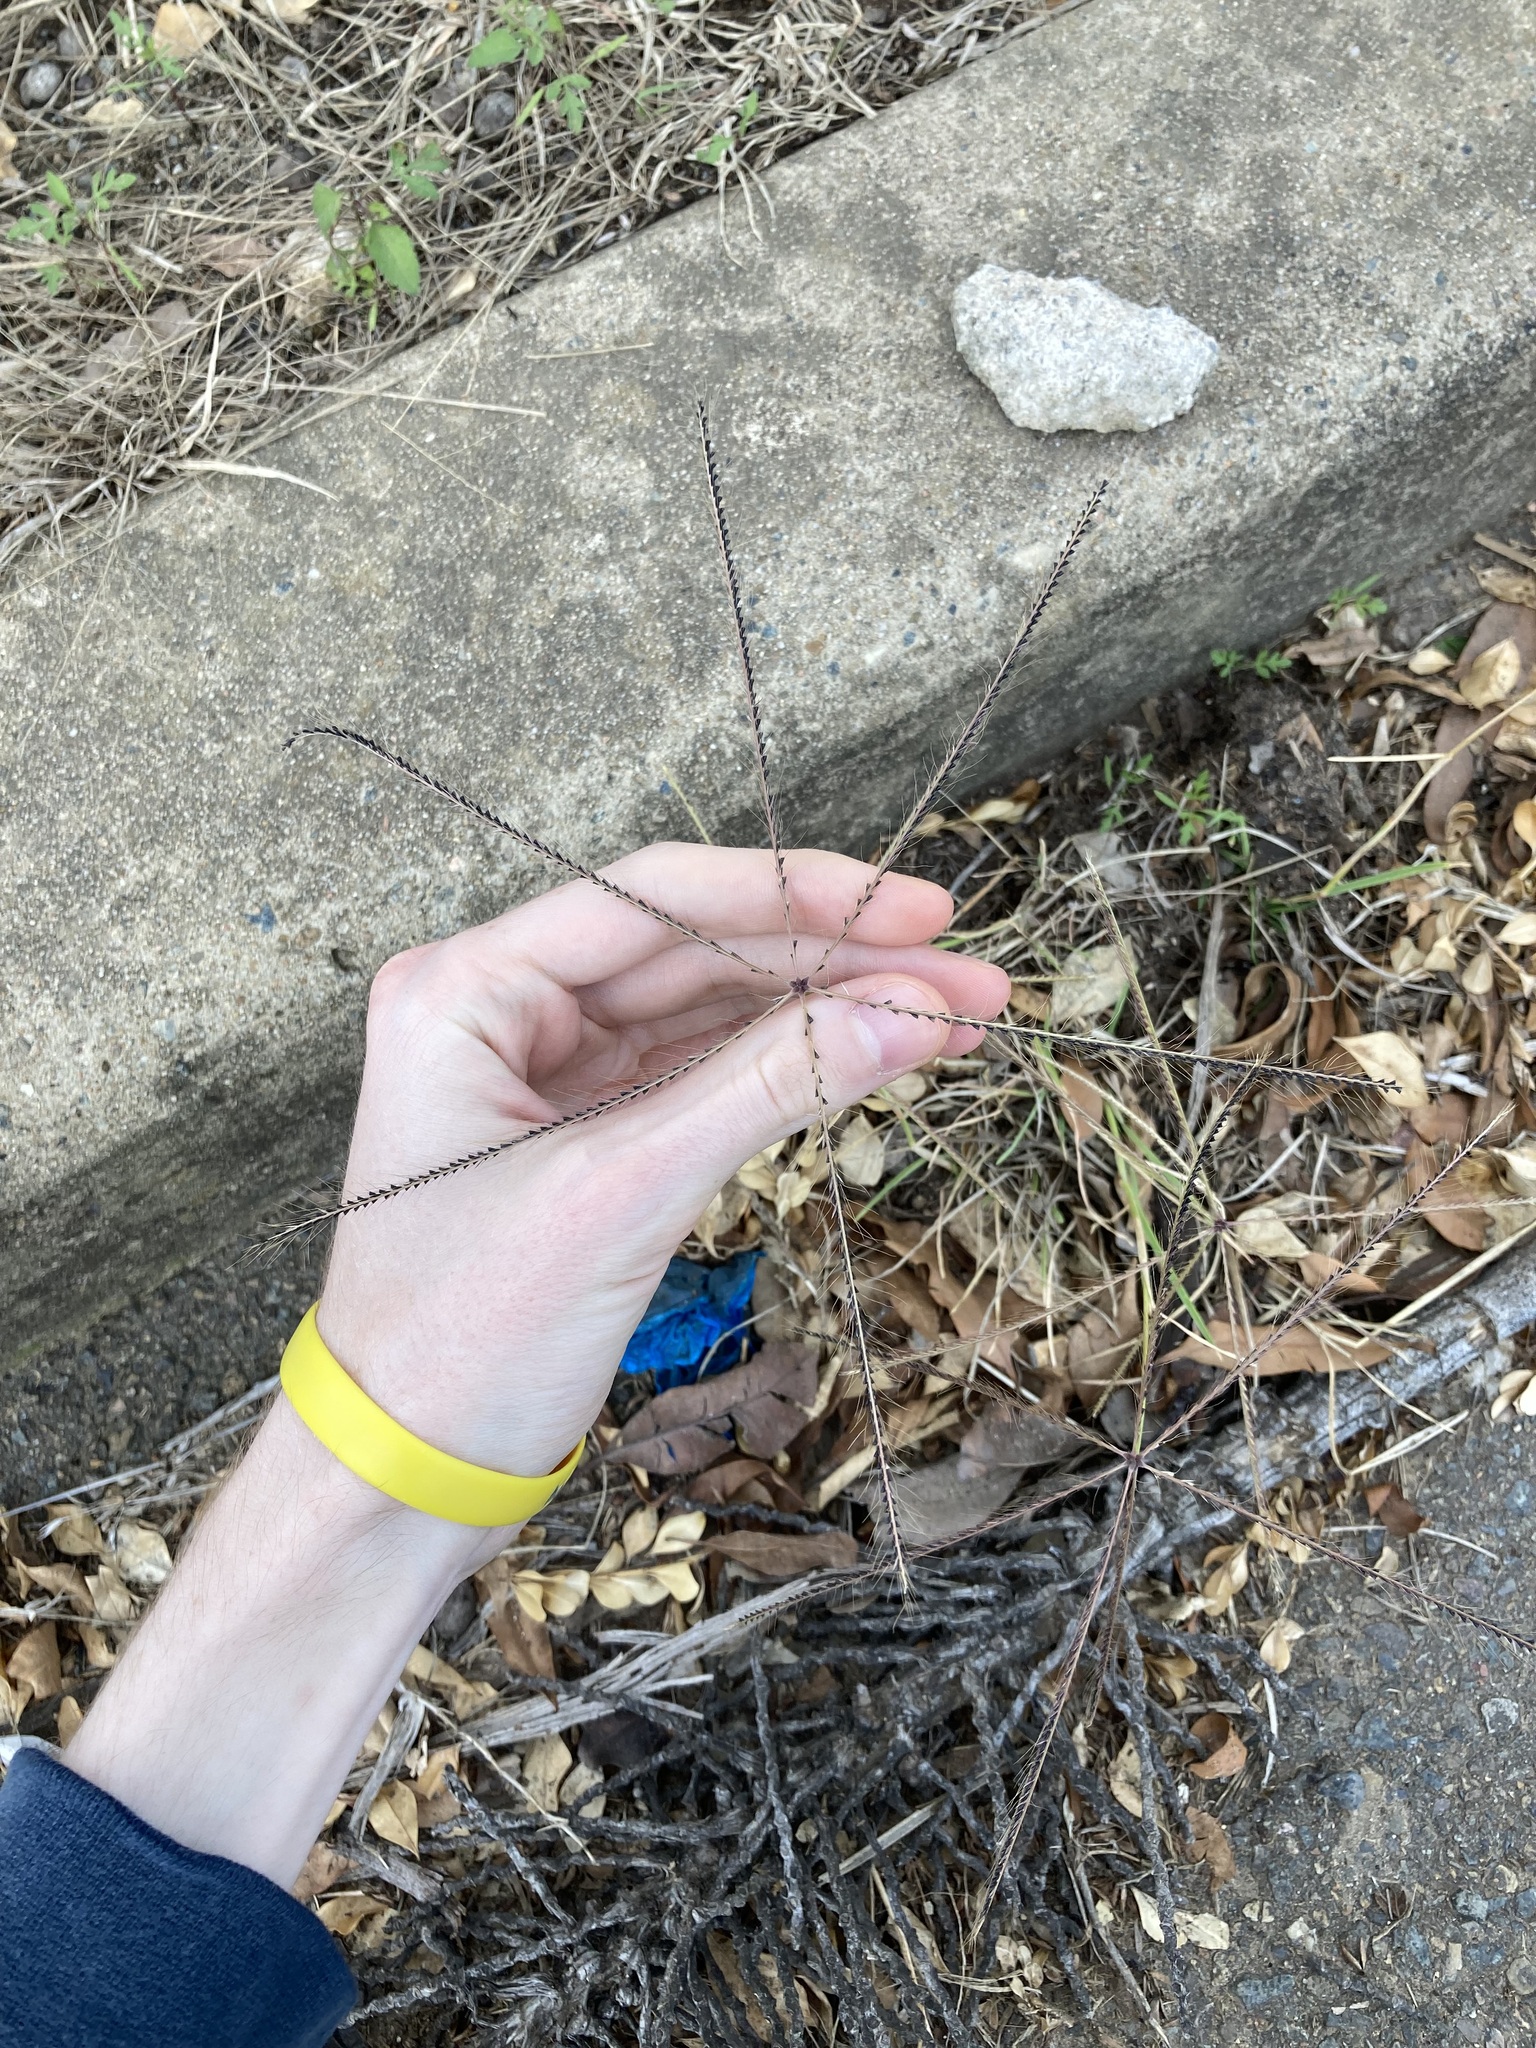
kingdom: Plantae
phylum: Tracheophyta
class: Liliopsida
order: Poales
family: Poaceae
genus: Chloris
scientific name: Chloris truncata
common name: Windmill-grass
